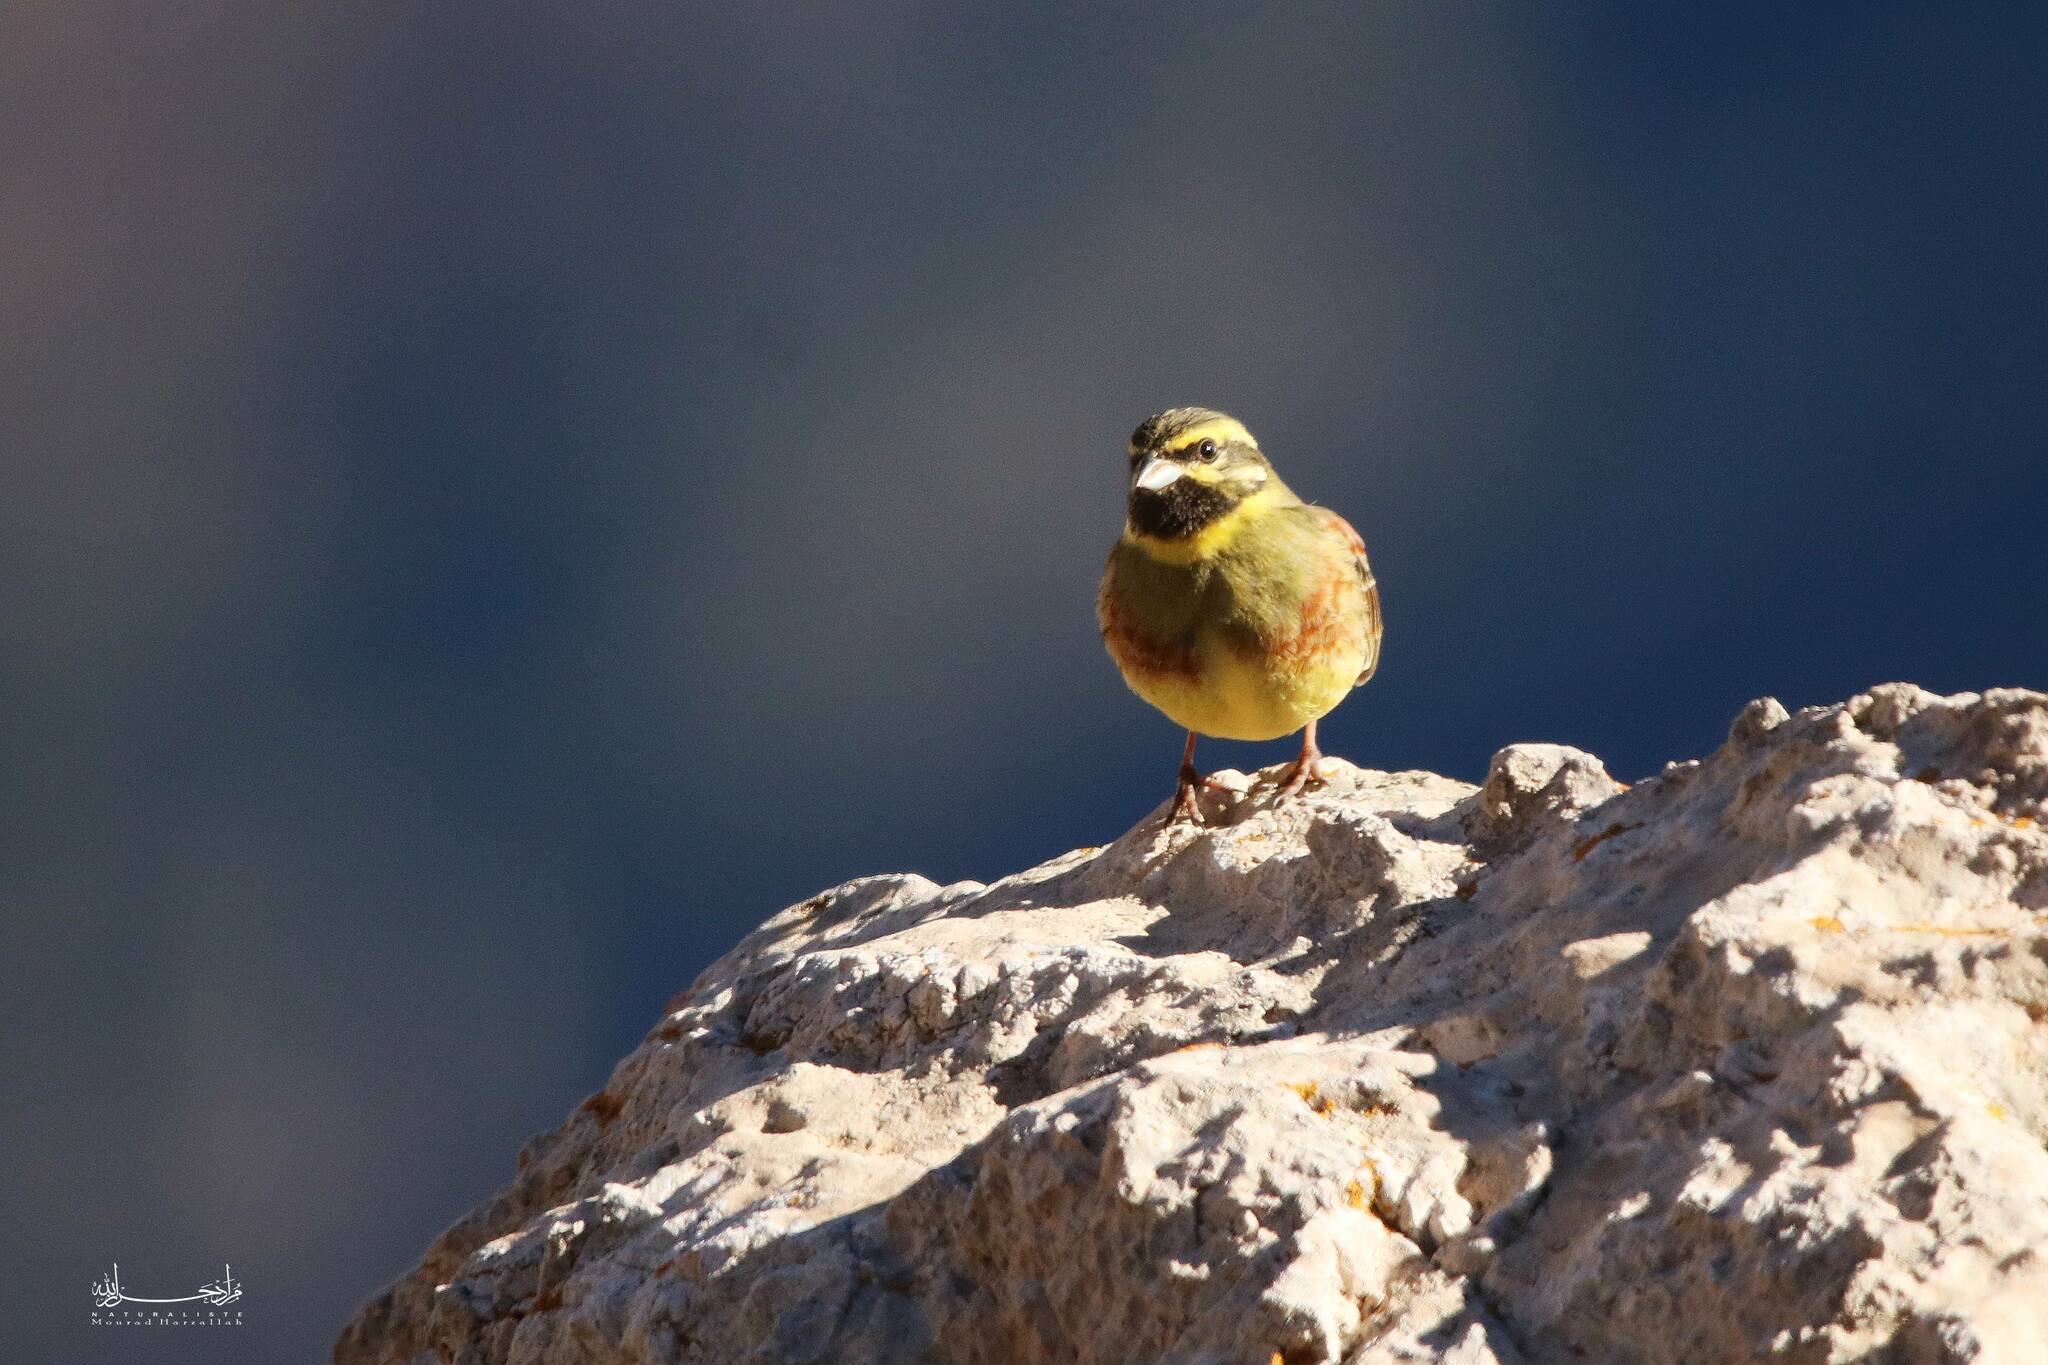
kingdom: Animalia
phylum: Chordata
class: Aves
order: Passeriformes
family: Emberizidae
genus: Emberiza
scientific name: Emberiza cirlus
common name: Cirl bunting
